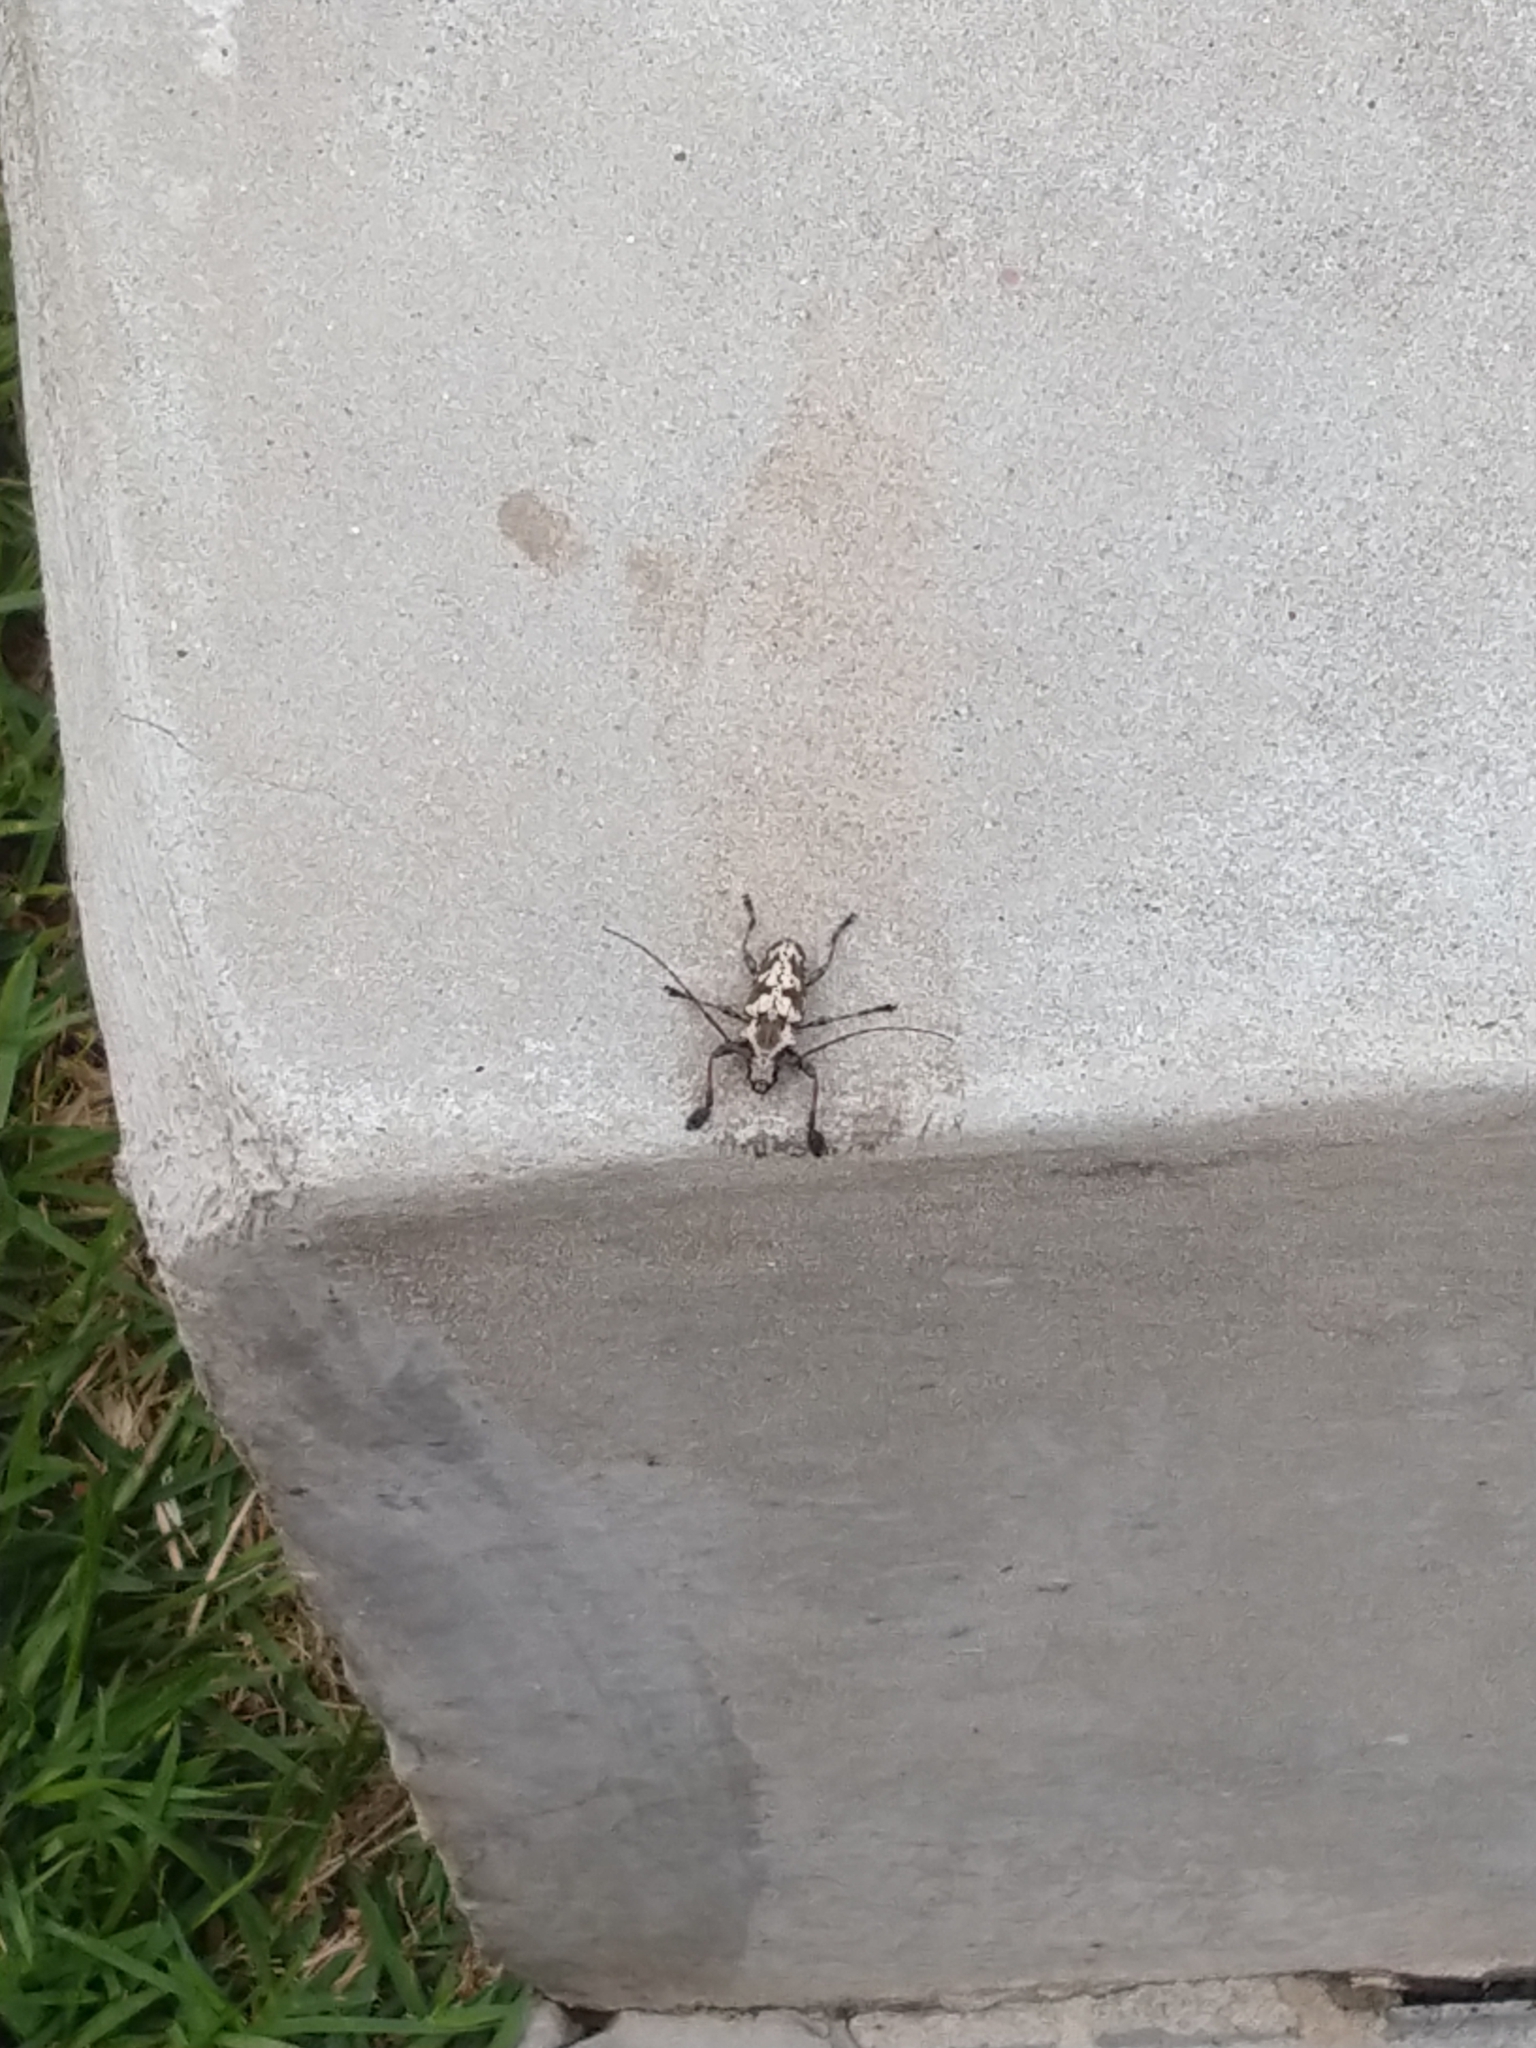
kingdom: Animalia
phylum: Arthropoda
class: Insecta
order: Coleoptera
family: Cerambycidae
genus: Steirastoma
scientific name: Steirastoma marmoratum
